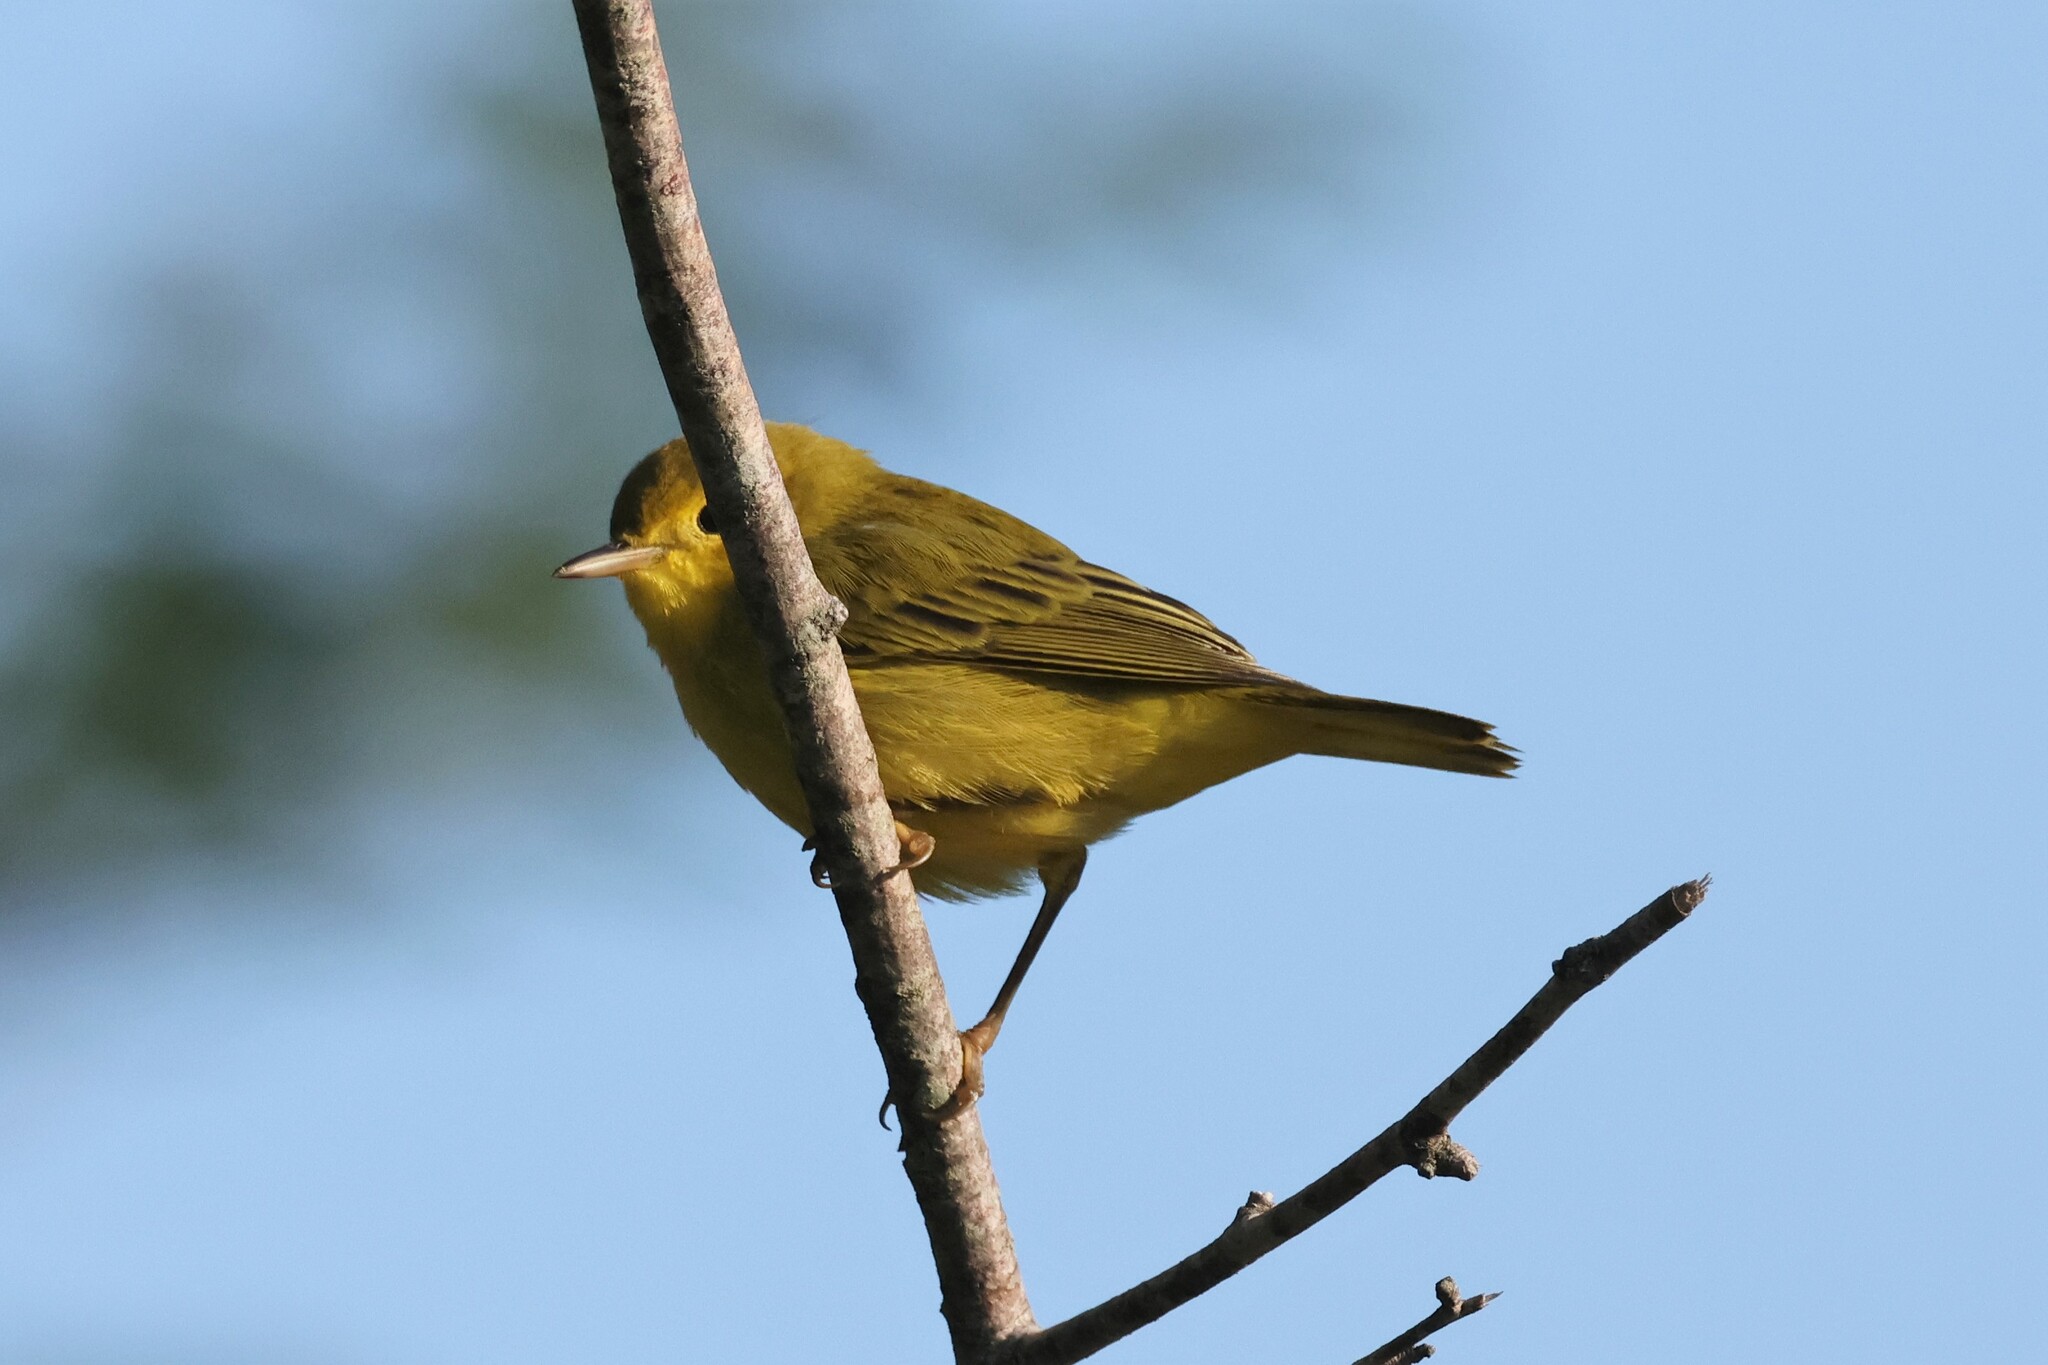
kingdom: Animalia
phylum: Chordata
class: Aves
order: Passeriformes
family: Parulidae
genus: Setophaga
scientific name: Setophaga petechia
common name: Yellow warbler
